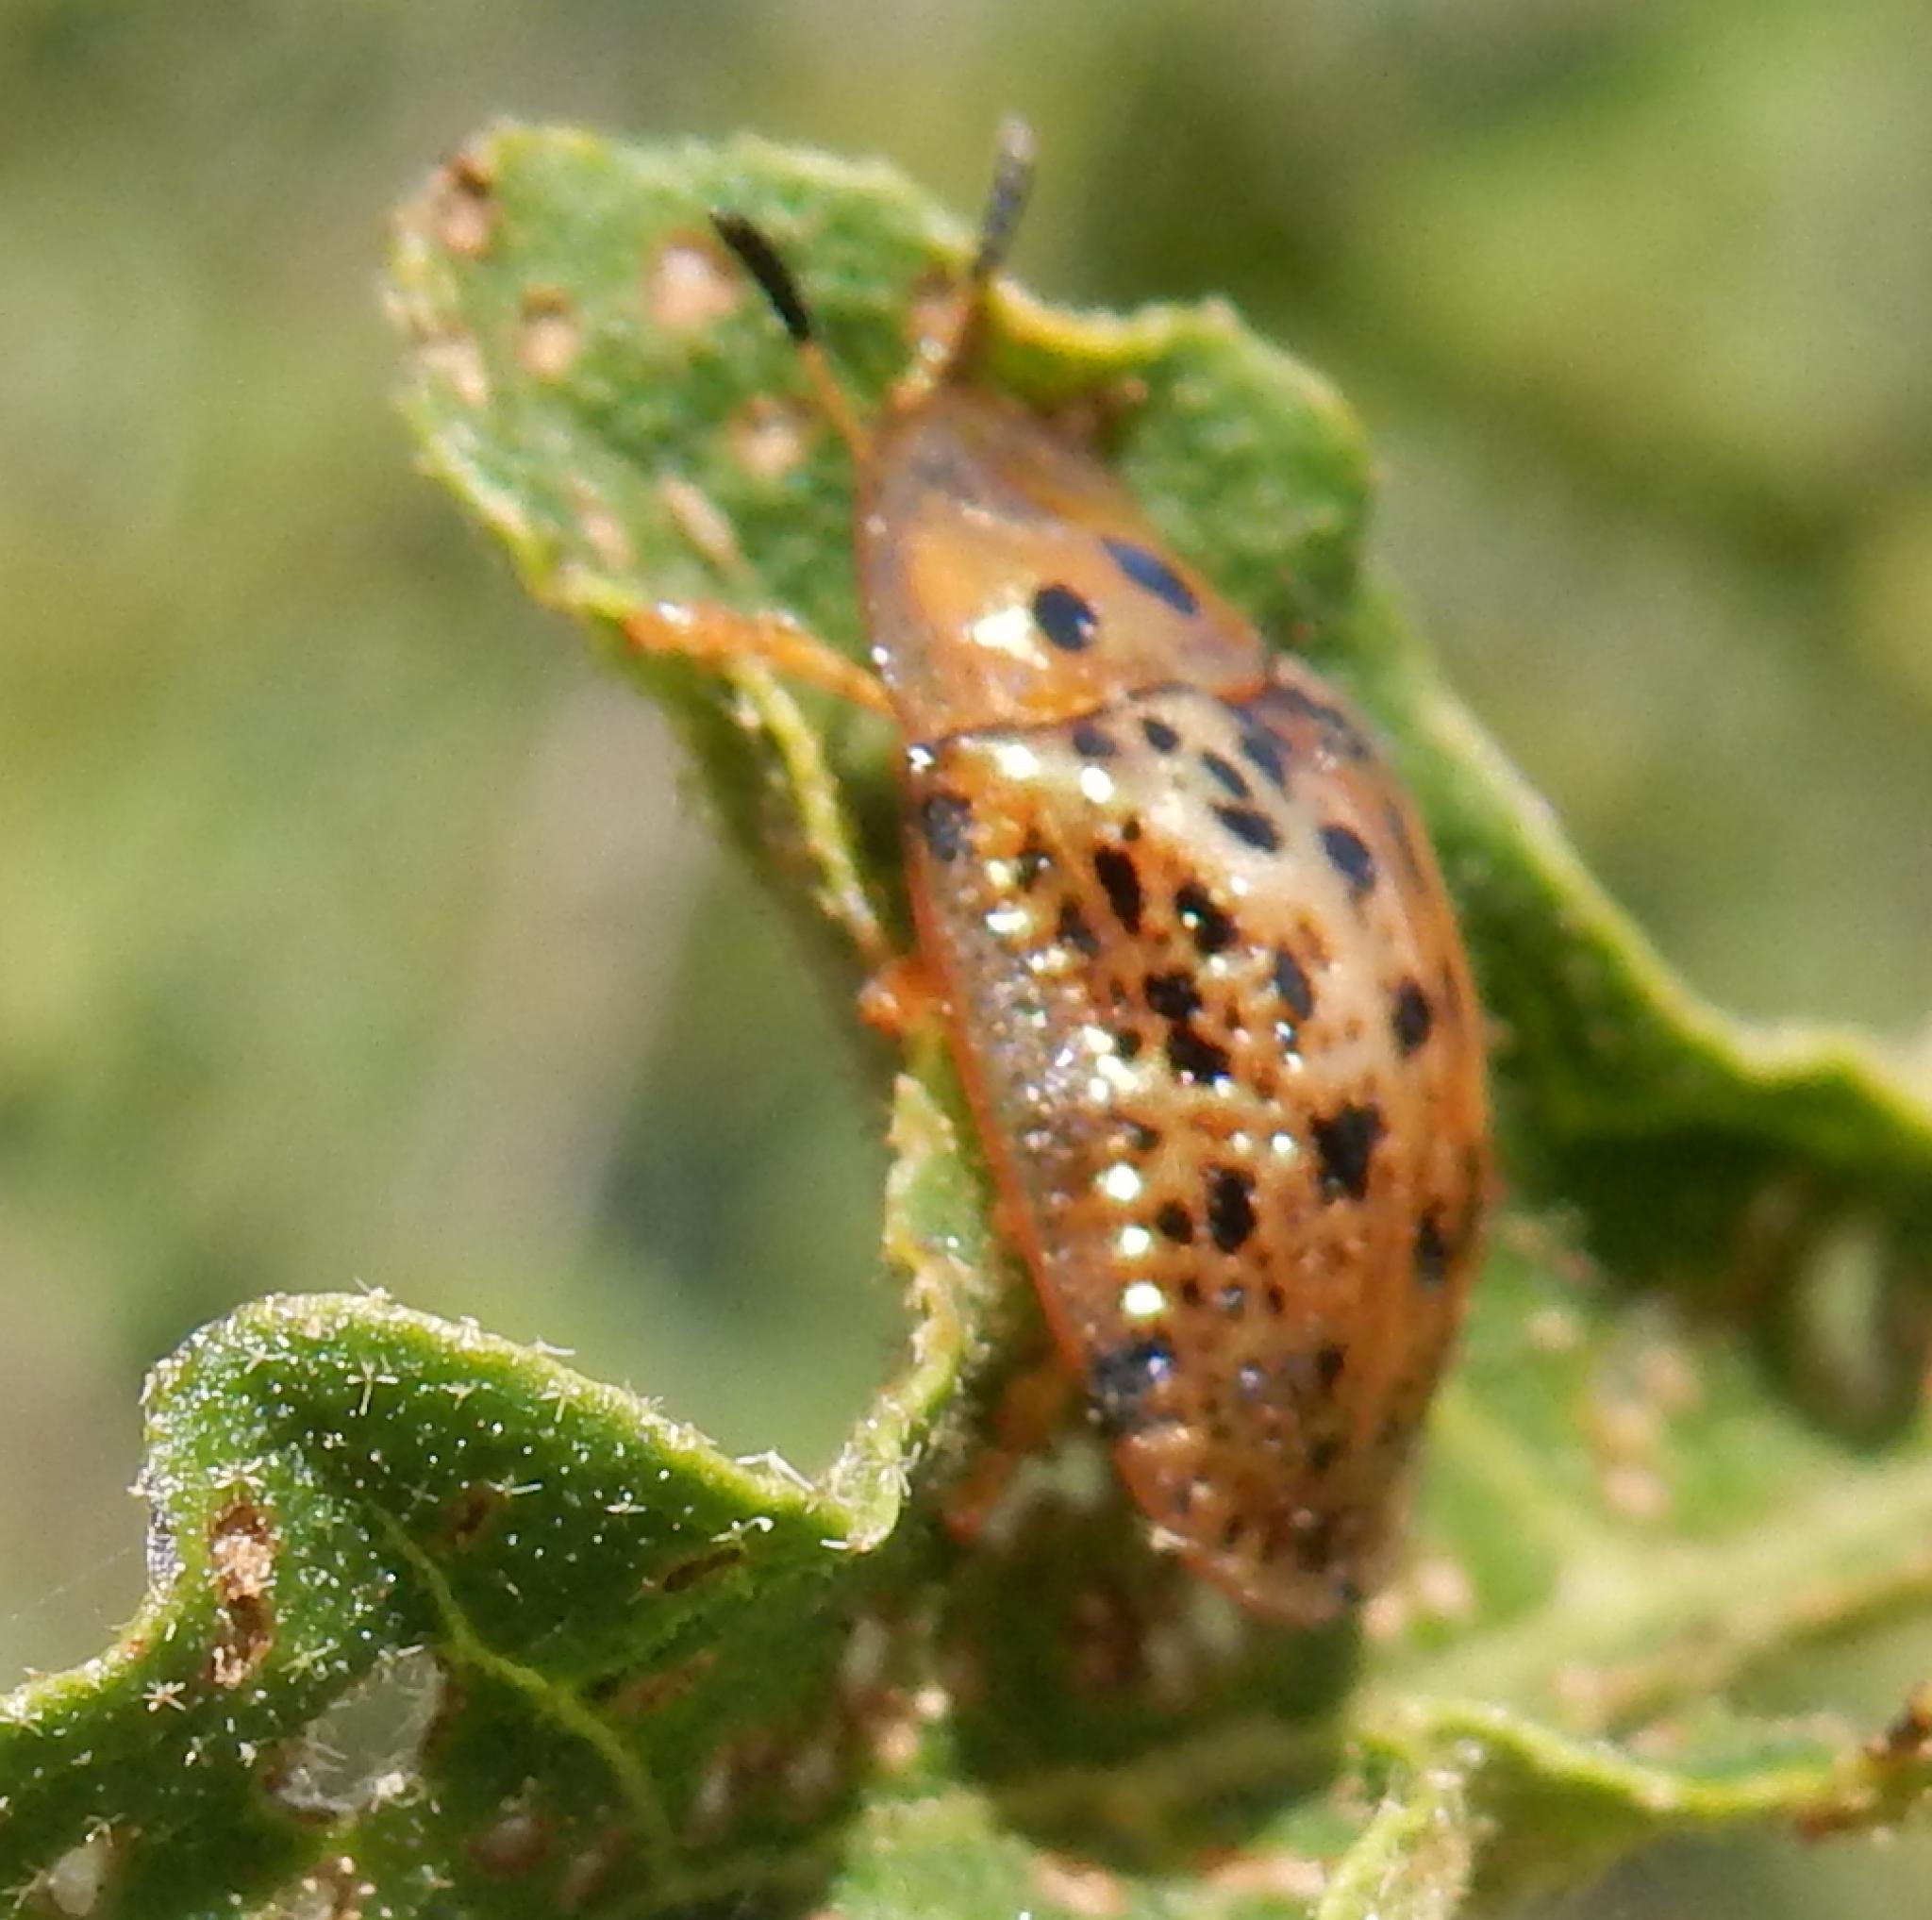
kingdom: Animalia
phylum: Arthropoda
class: Insecta
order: Coleoptera
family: Chrysomelidae
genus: Conchyloctenia
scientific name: Conchyloctenia tripuncticollis
